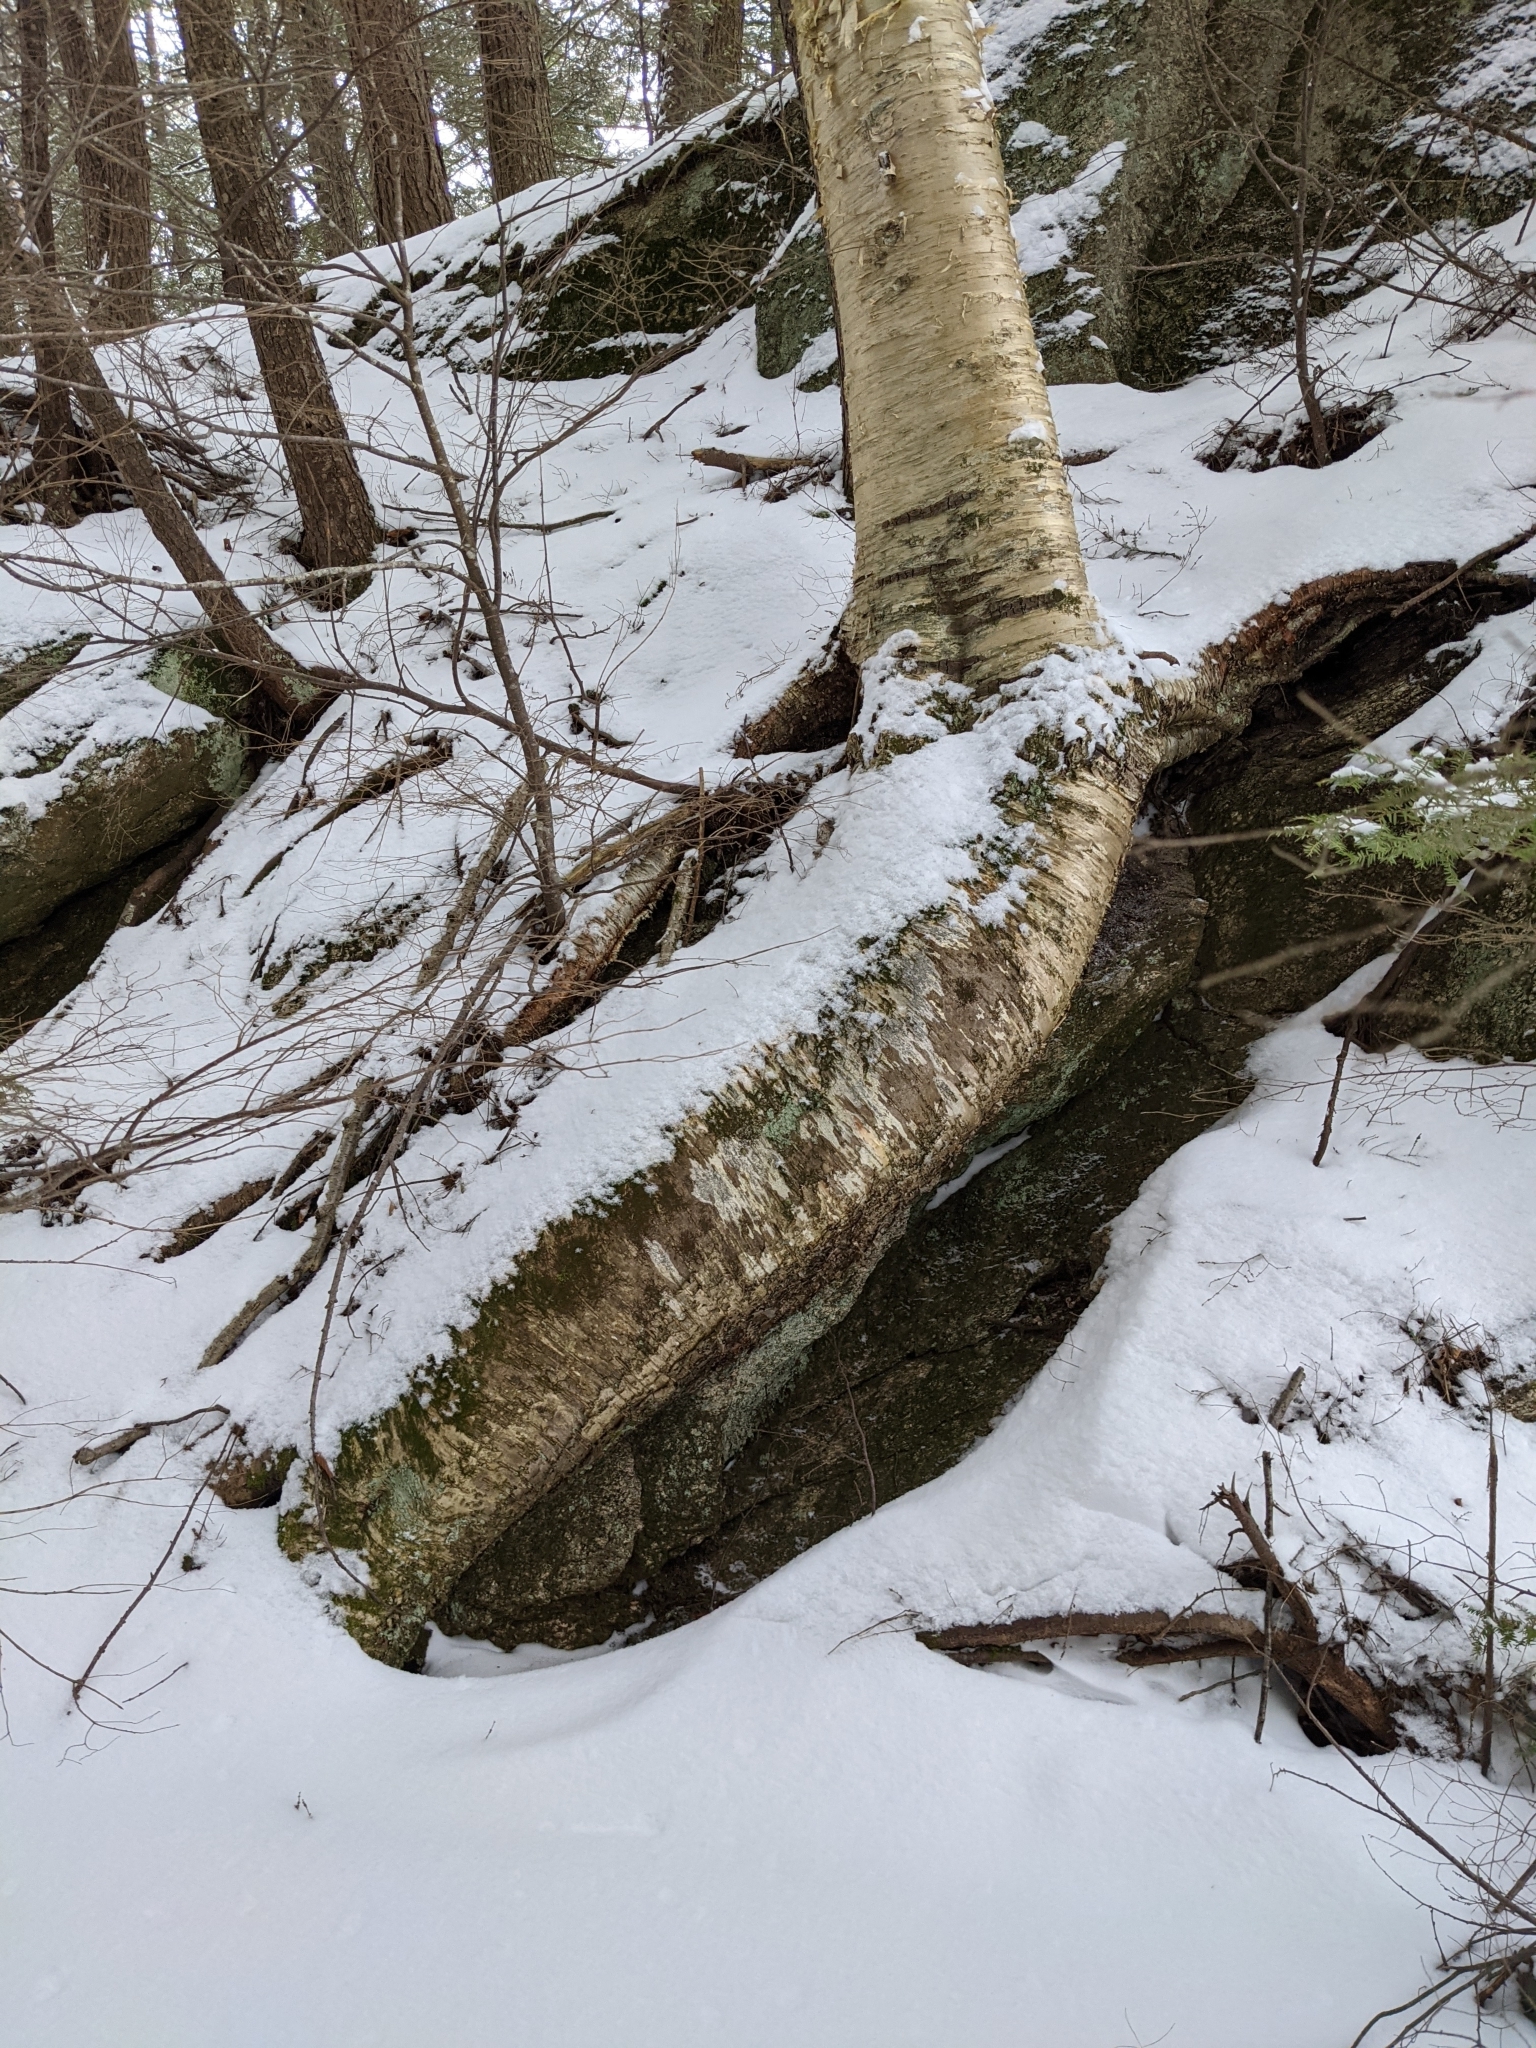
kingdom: Plantae
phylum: Tracheophyta
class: Magnoliopsida
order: Fagales
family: Betulaceae
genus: Betula
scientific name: Betula alleghaniensis
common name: Yellow birch
